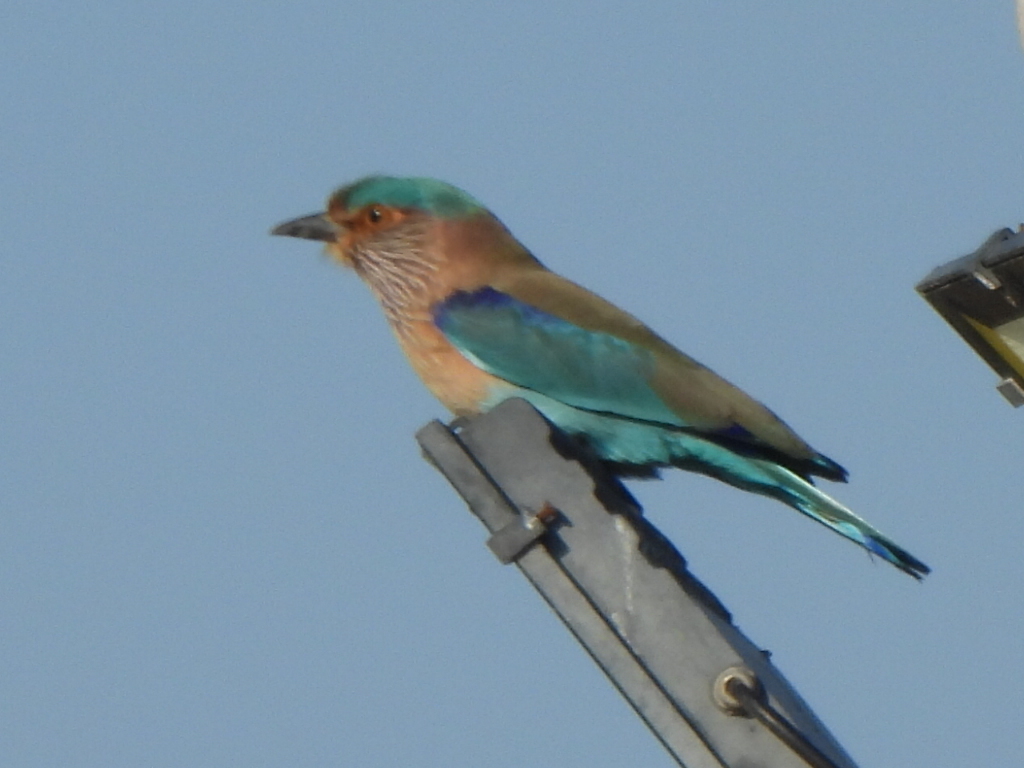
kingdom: Animalia
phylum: Chordata
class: Aves
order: Coraciiformes
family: Coraciidae
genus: Coracias
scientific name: Coracias benghalensis
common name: Indian roller
